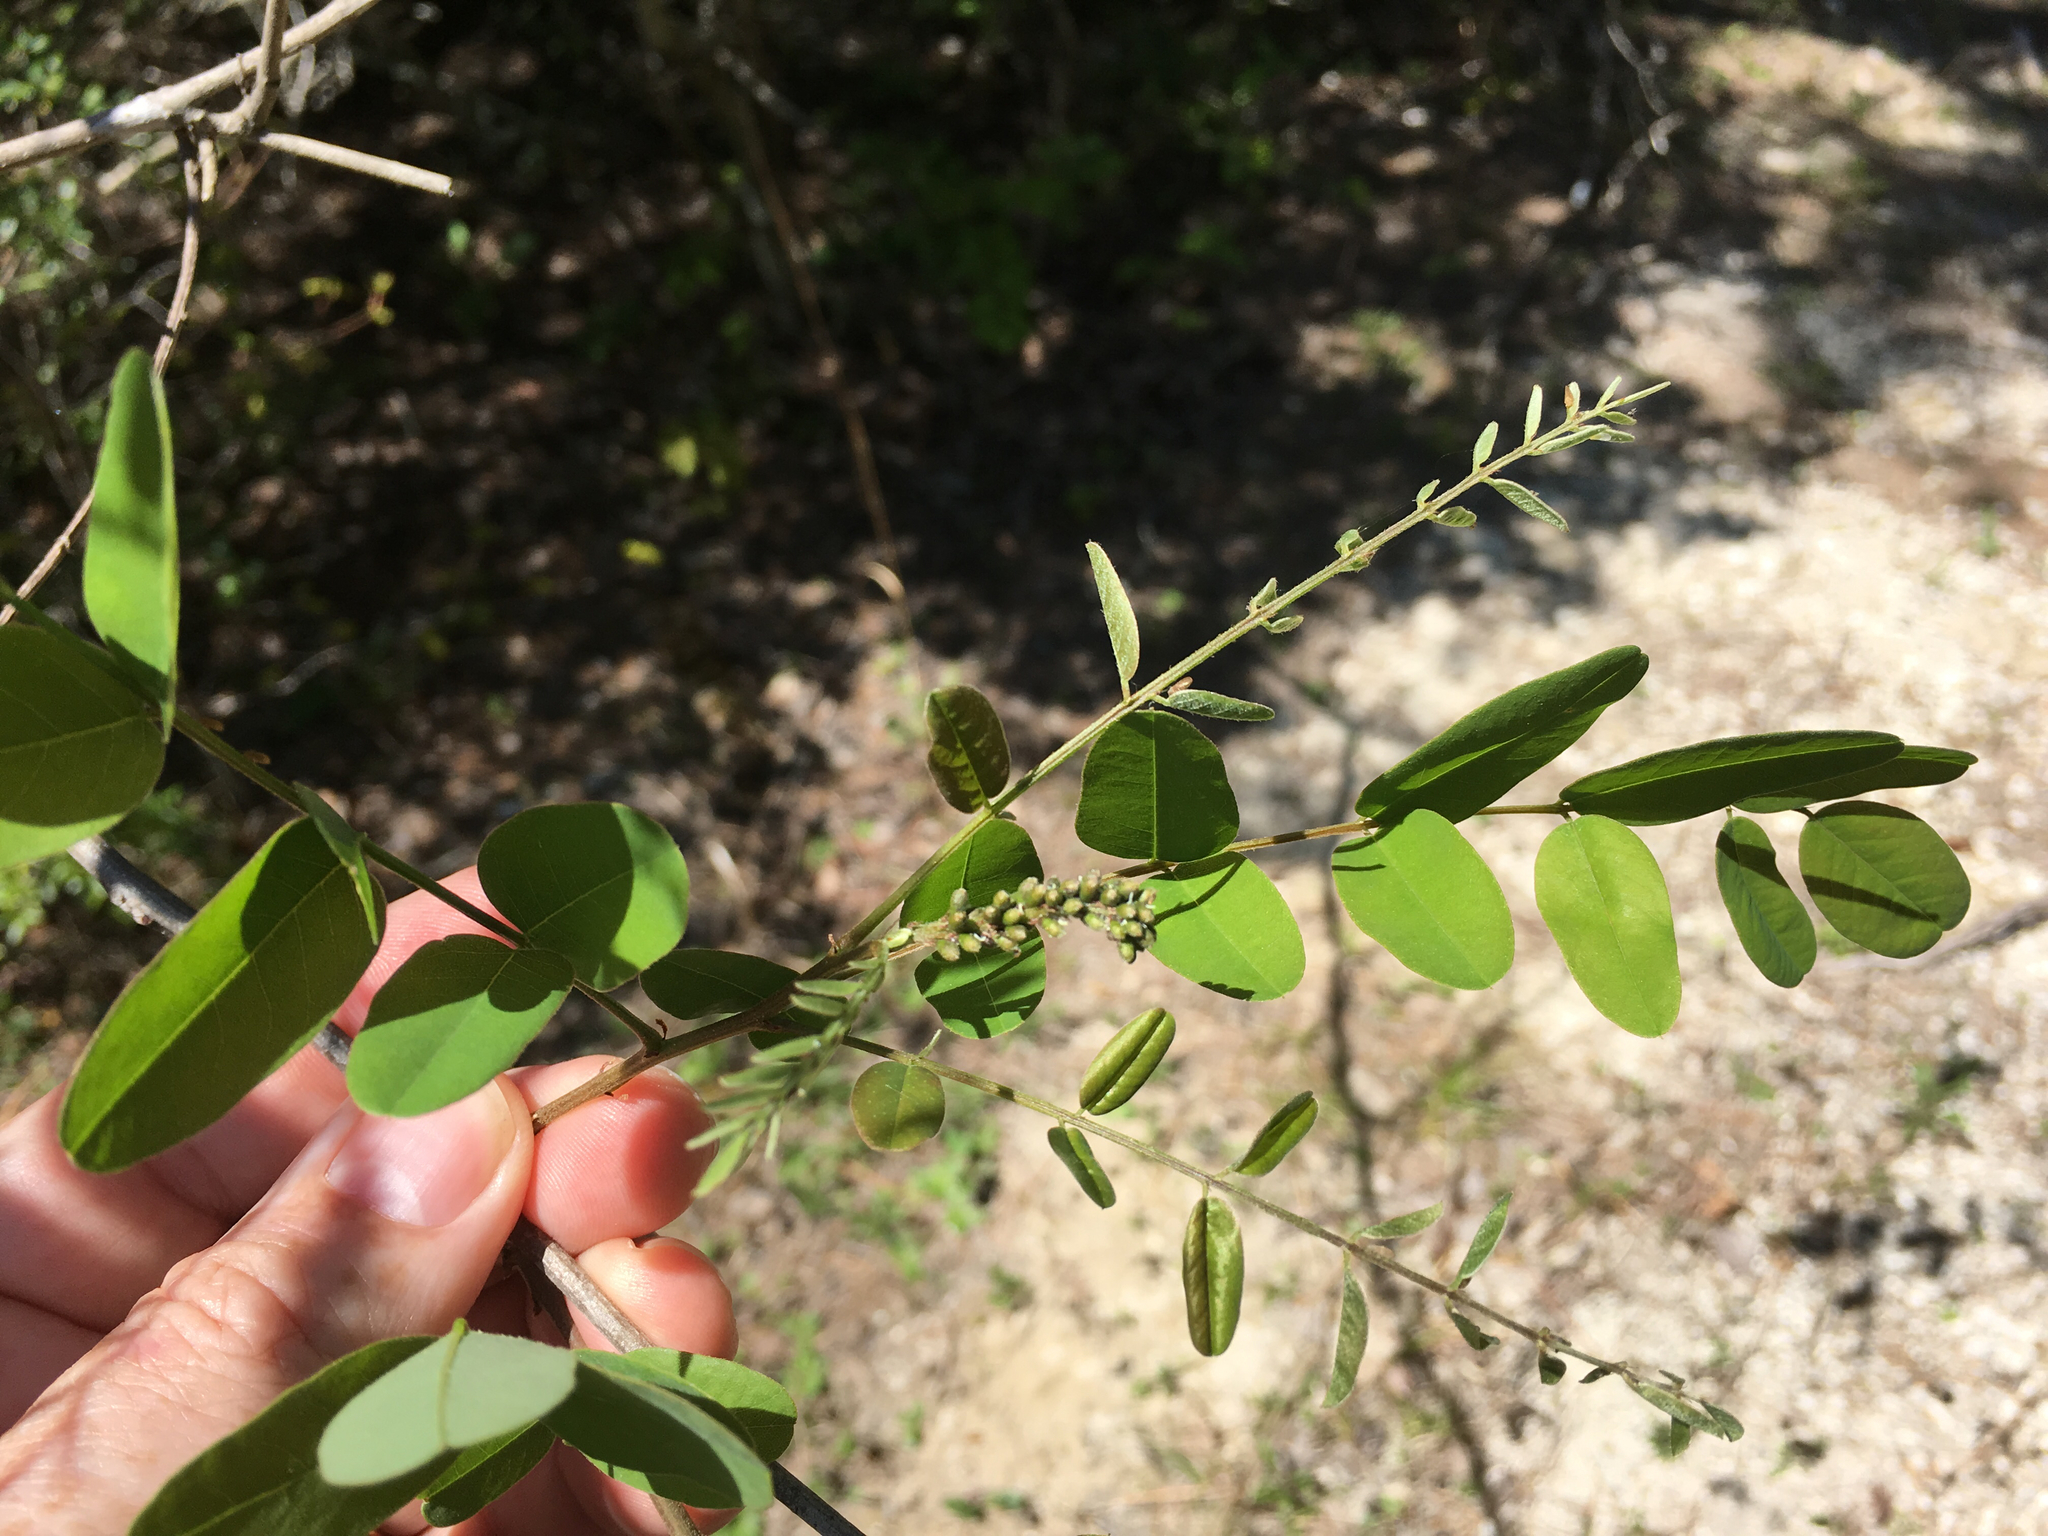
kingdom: Plantae
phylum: Tracheophyta
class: Magnoliopsida
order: Fabales
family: Fabaceae
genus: Amorpha
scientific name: Amorpha nitens
